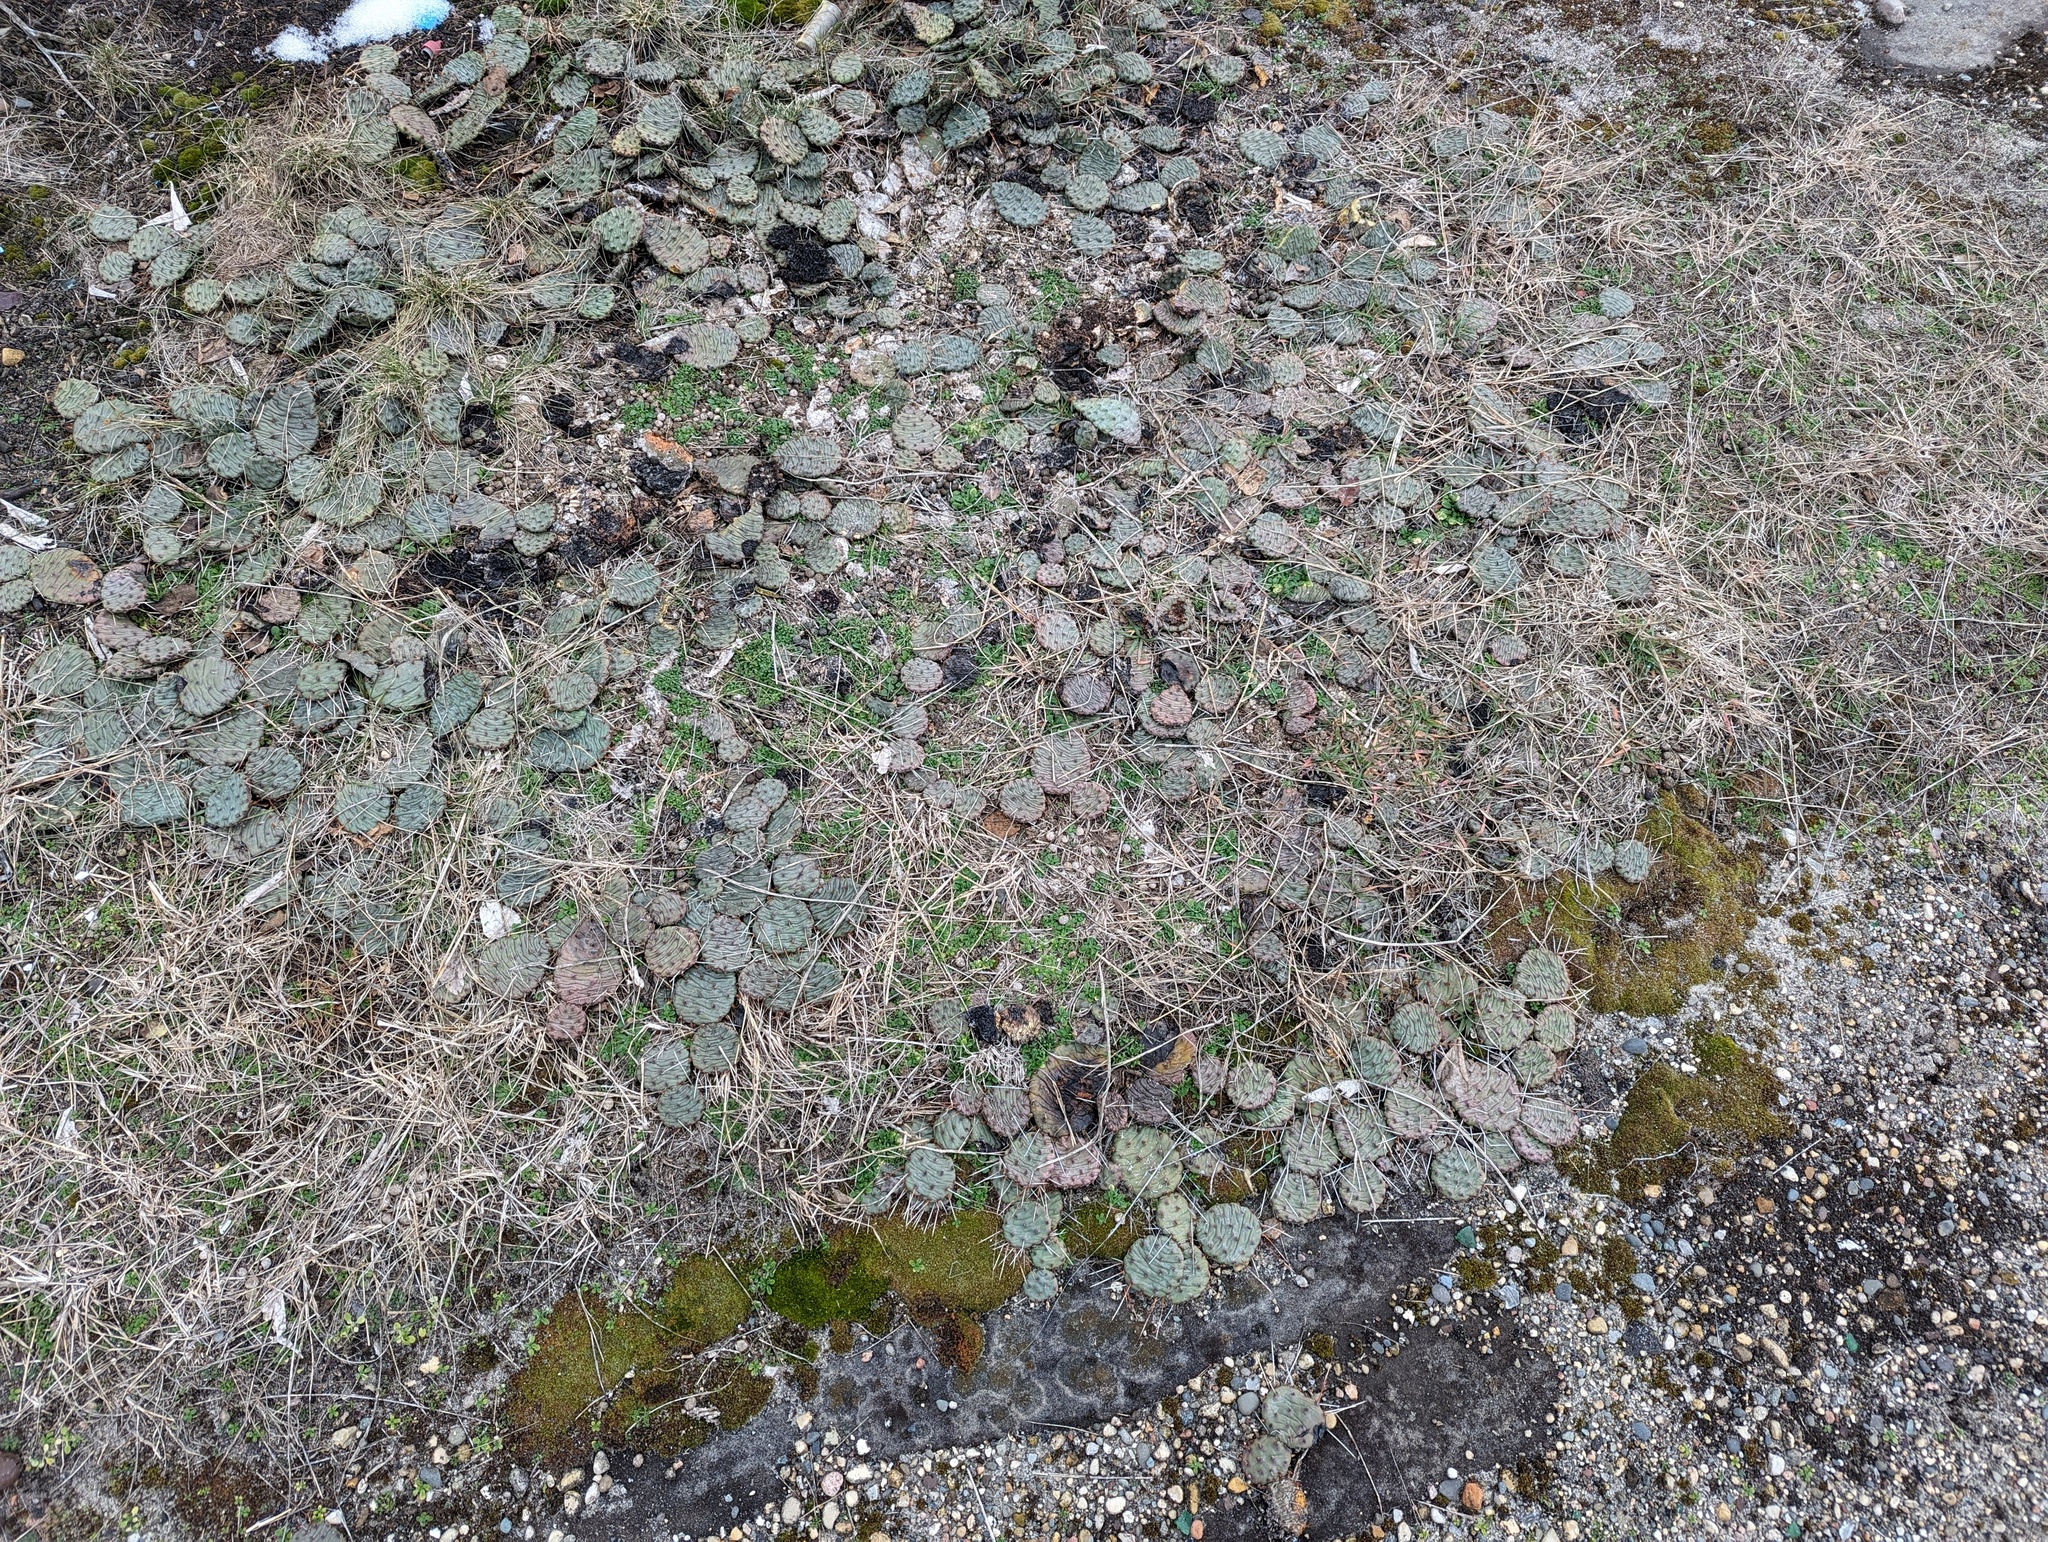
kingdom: Plantae
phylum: Tracheophyta
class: Magnoliopsida
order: Caryophyllales
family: Cactaceae
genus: Opuntia
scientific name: Opuntia humifusa
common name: Eastern prickly-pear
